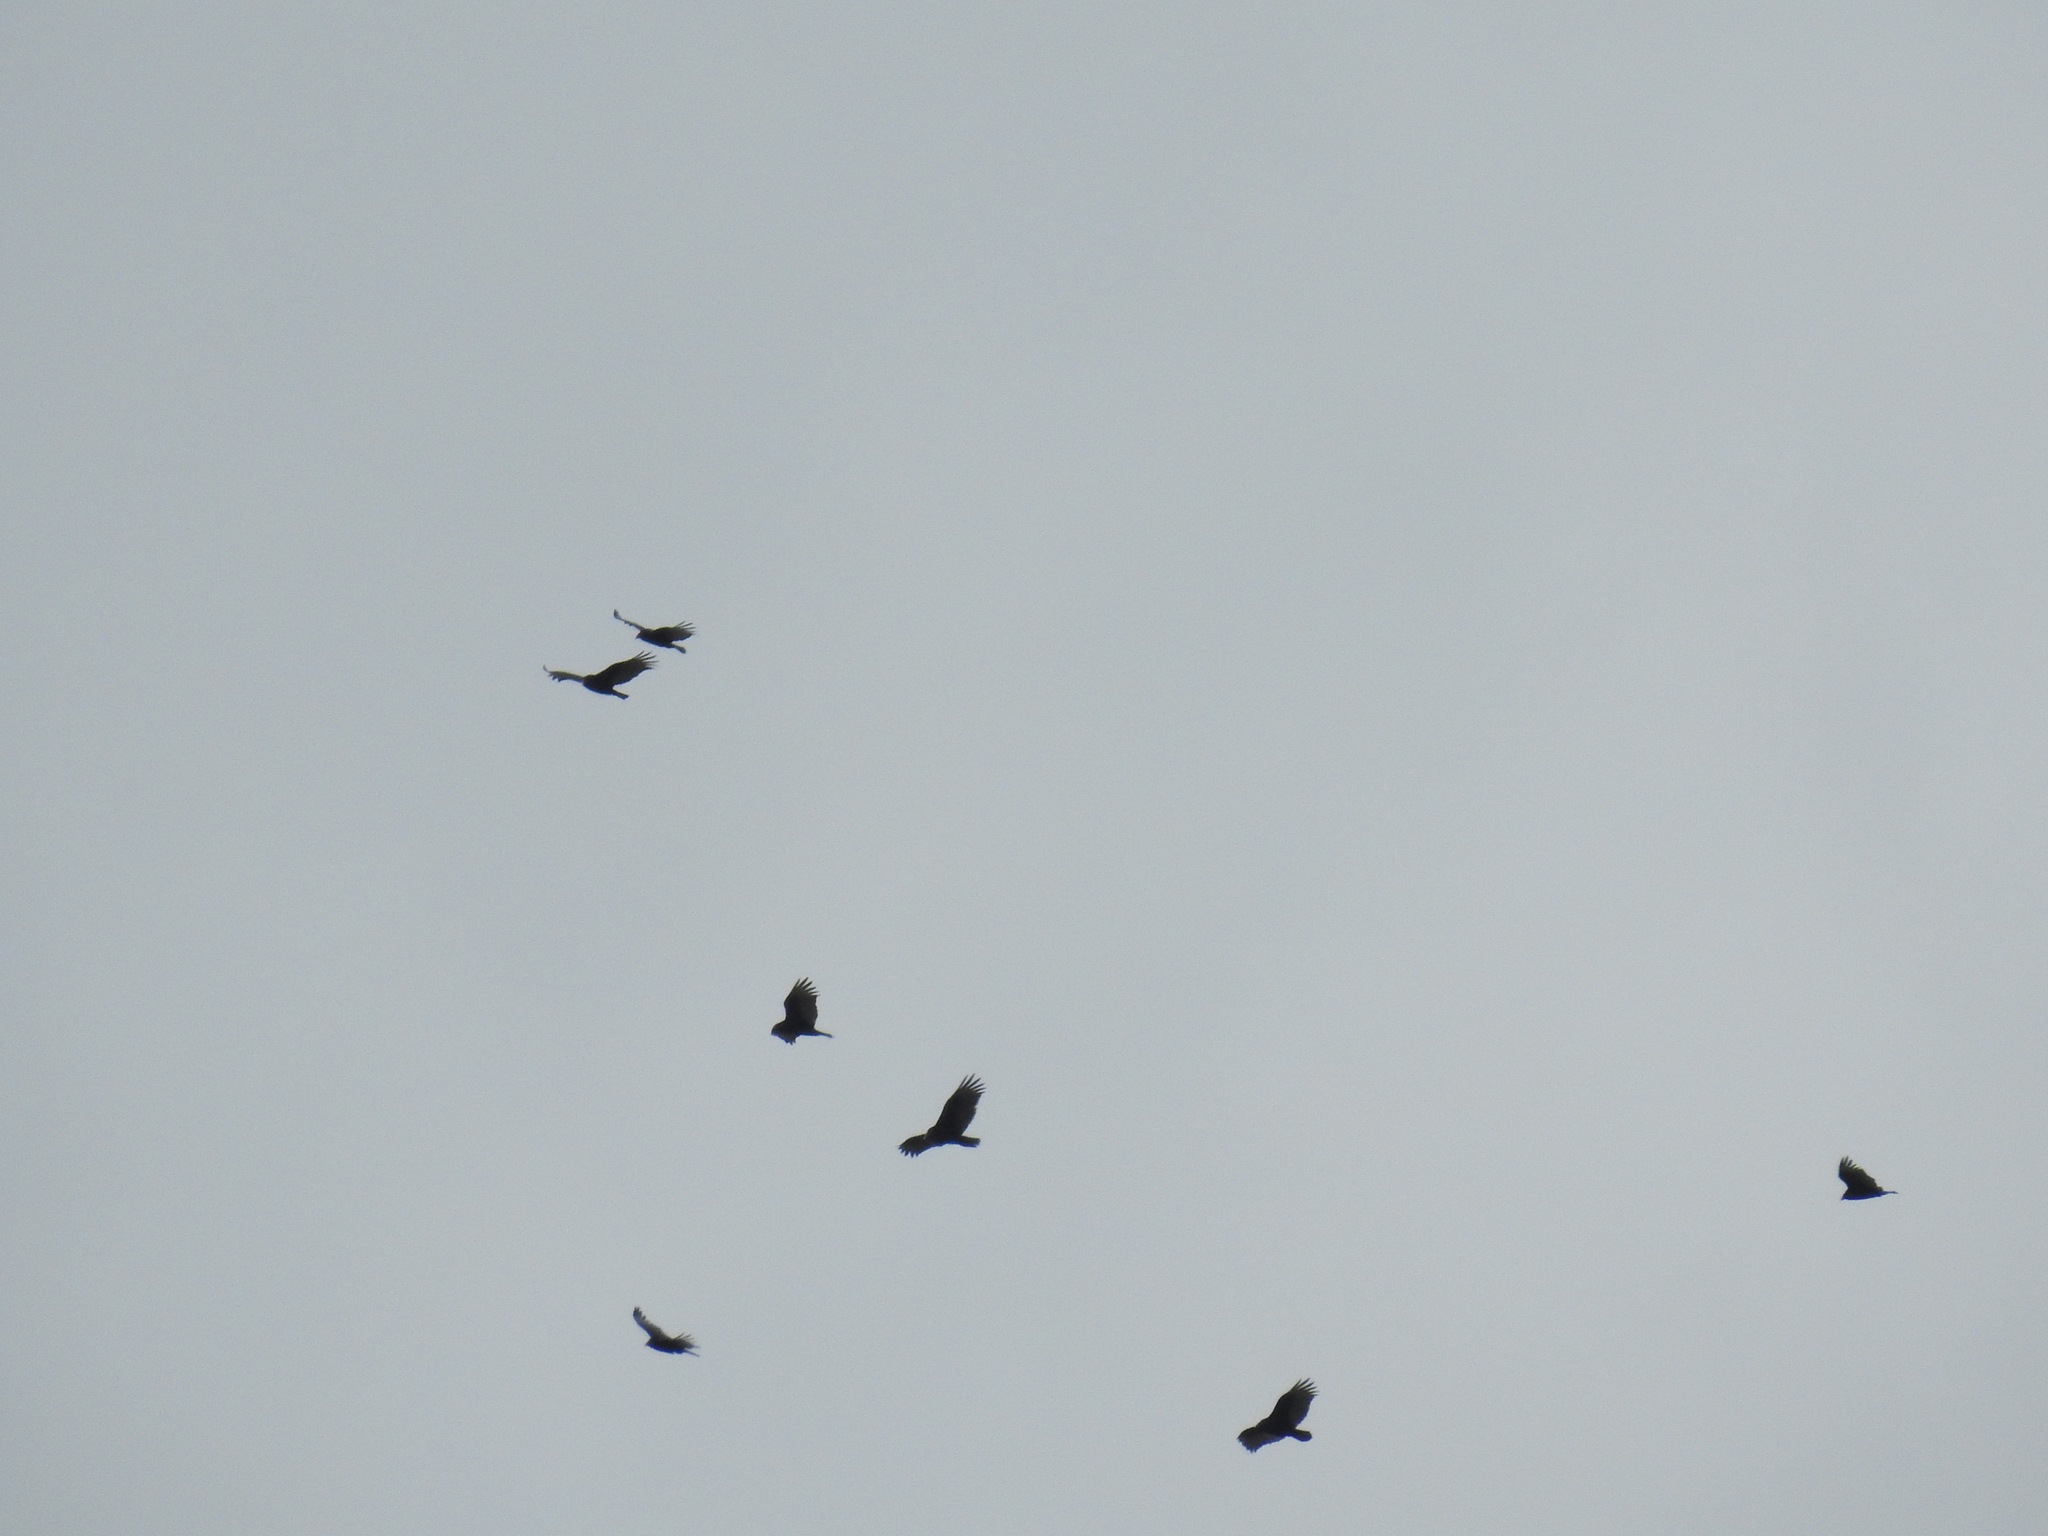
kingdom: Animalia
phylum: Chordata
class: Aves
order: Accipitriformes
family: Cathartidae
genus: Cathartes
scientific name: Cathartes aura
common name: Turkey vulture
